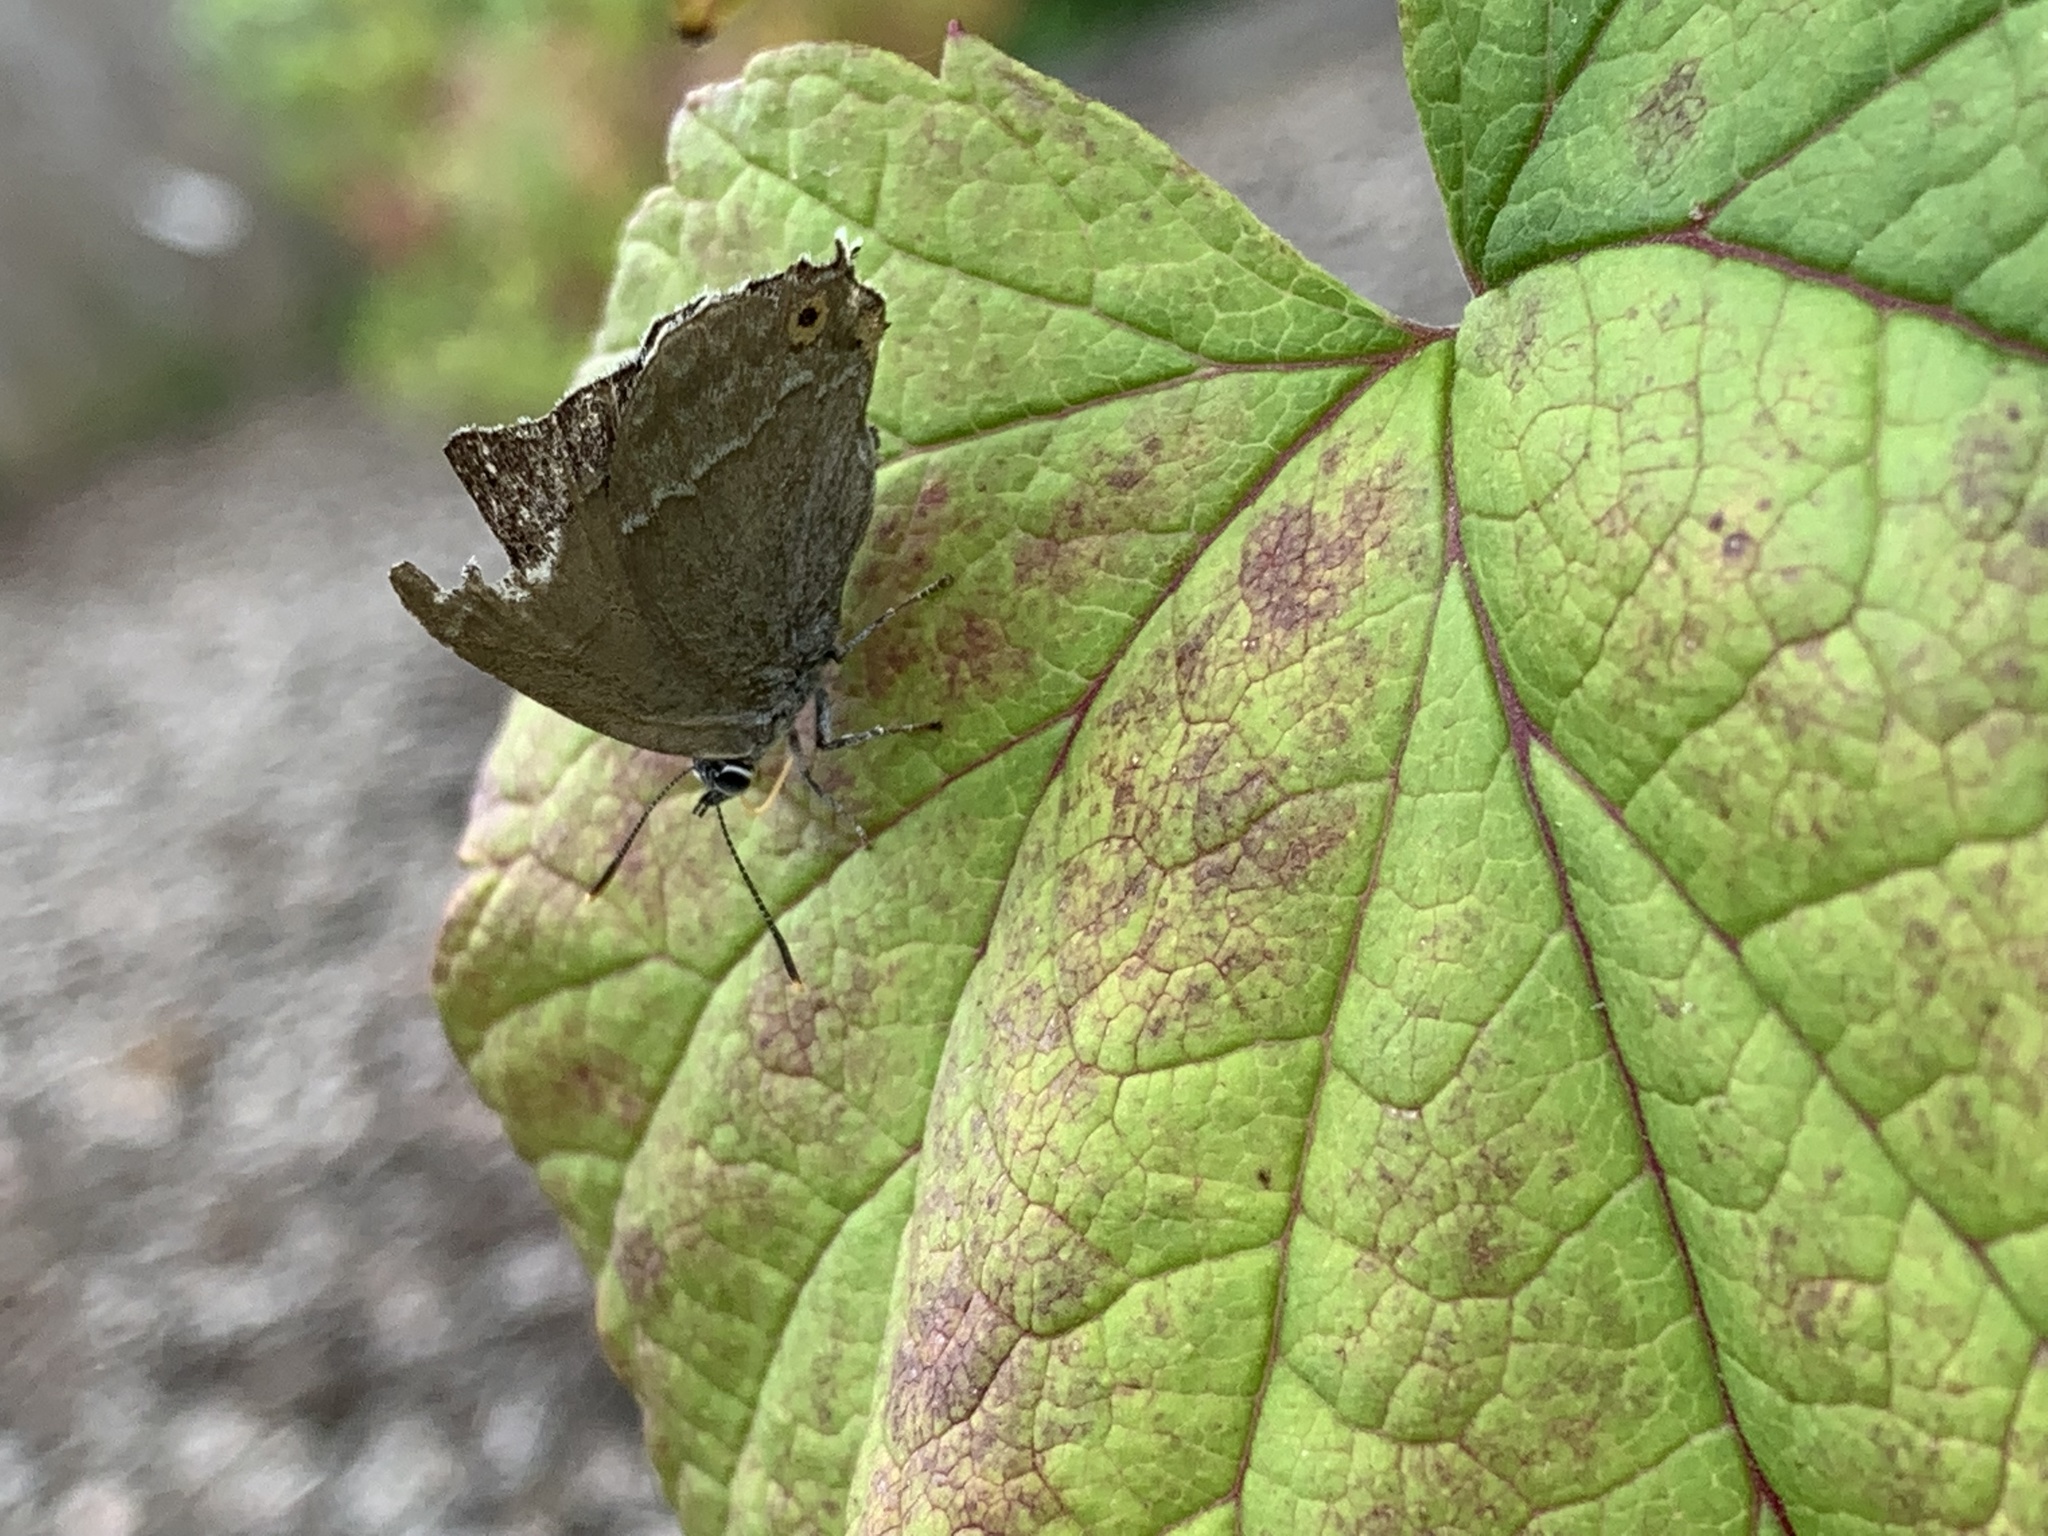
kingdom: Animalia
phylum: Arthropoda
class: Insecta
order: Lepidoptera
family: Lycaenidae
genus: Quercusia
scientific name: Quercusia quercus
